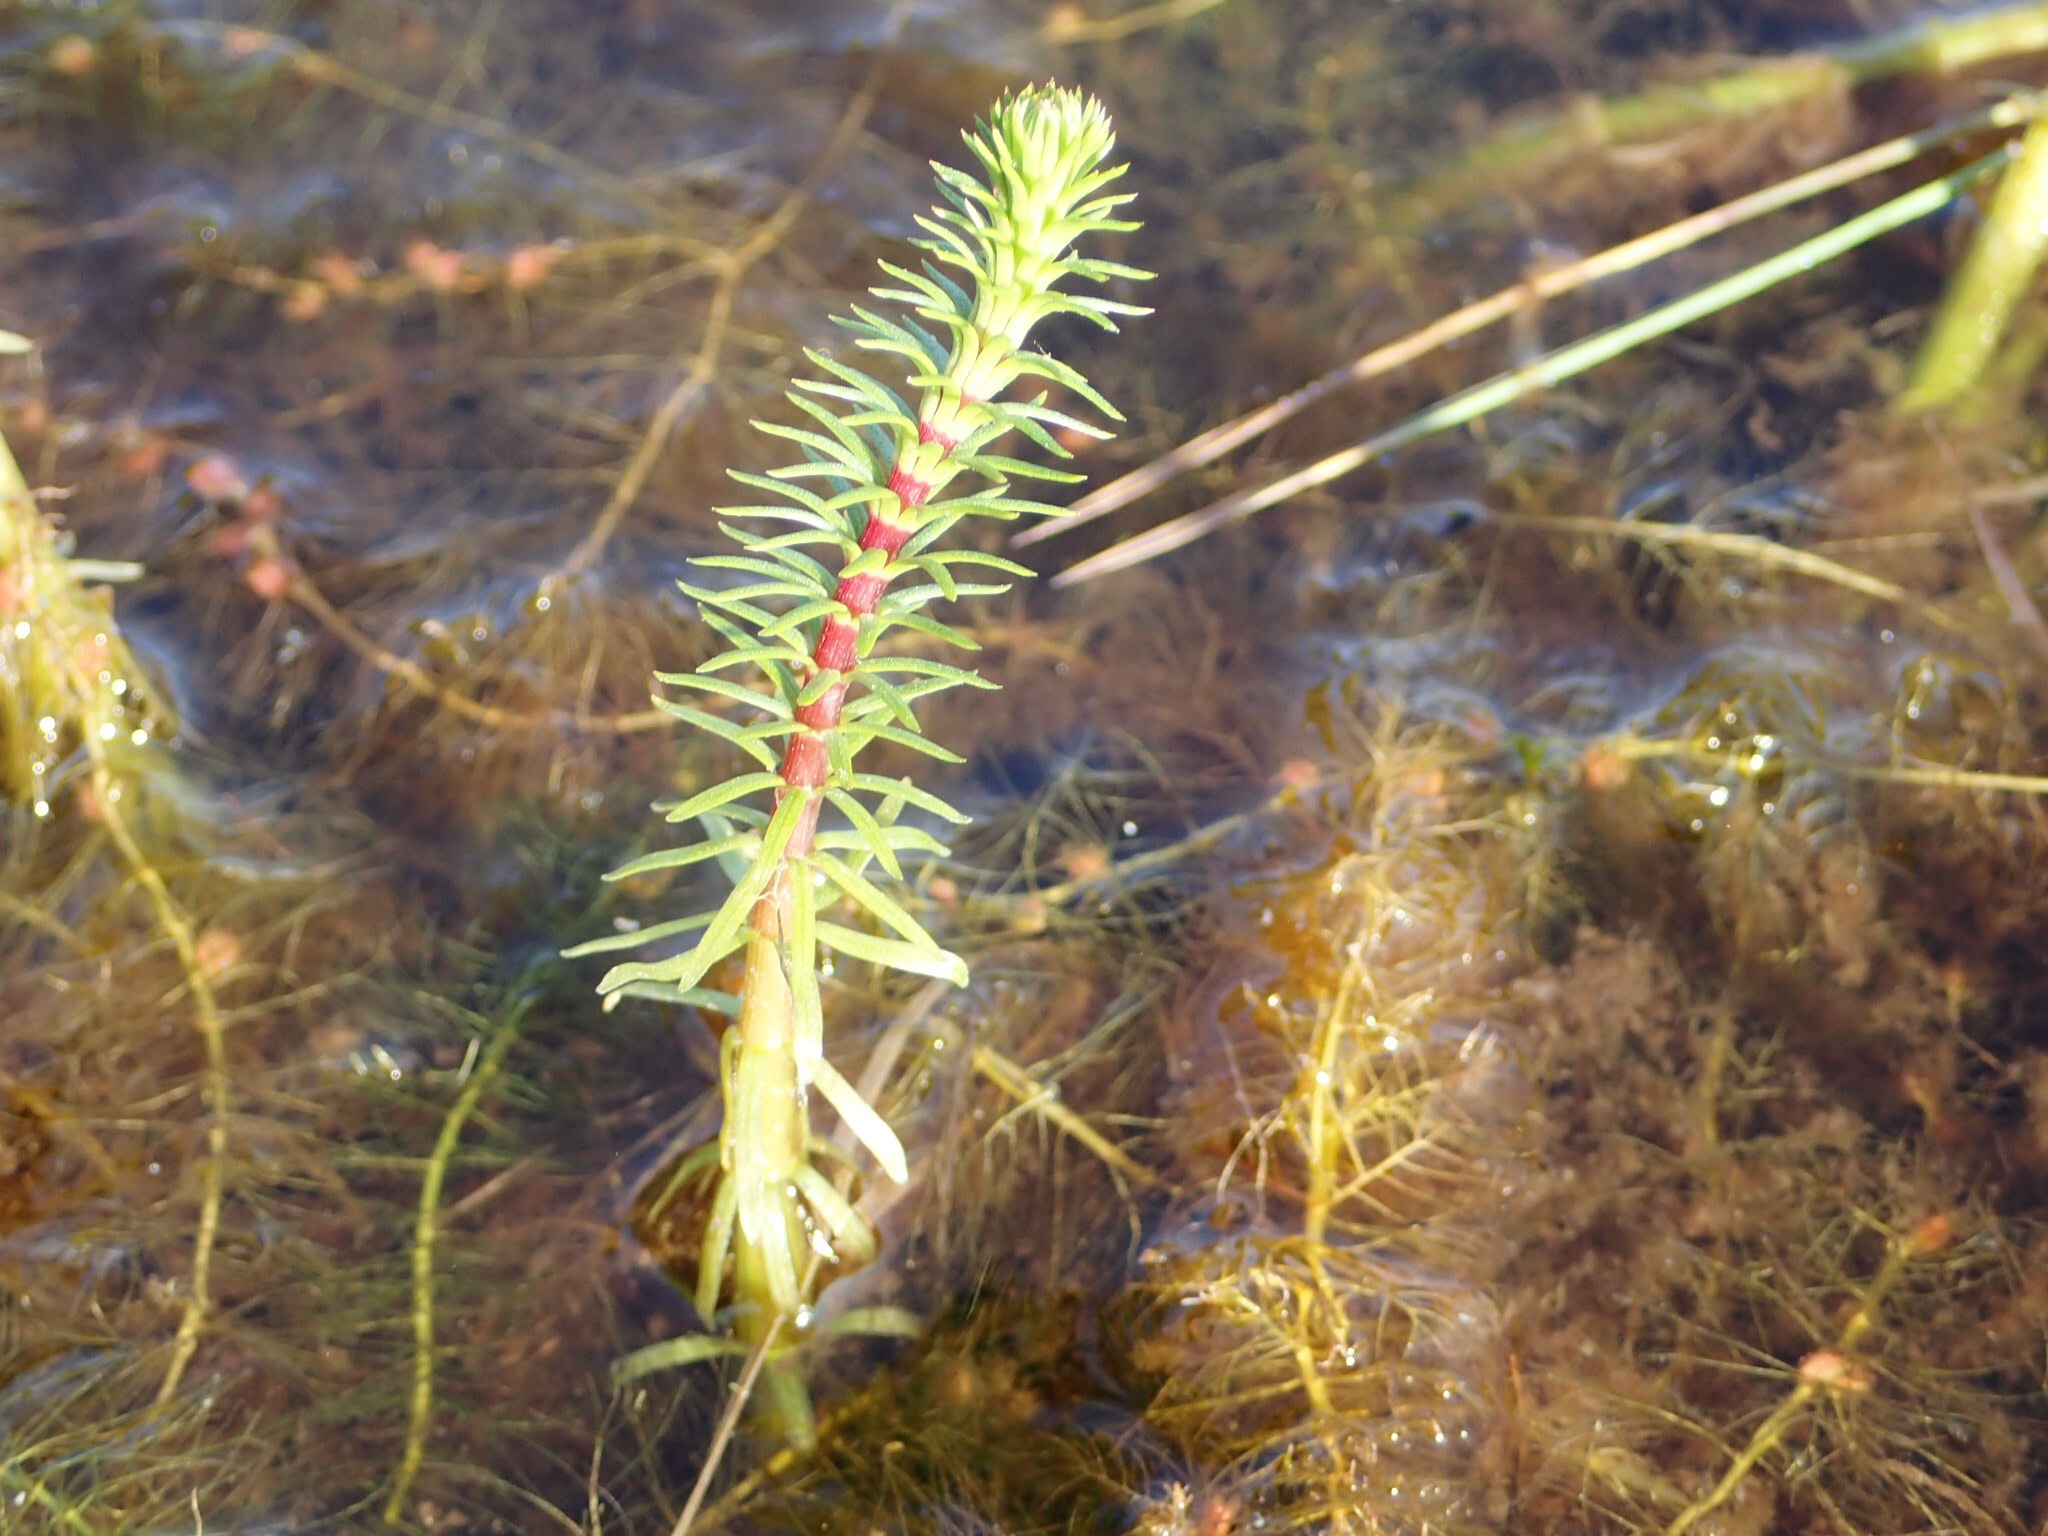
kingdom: Plantae
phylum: Tracheophyta
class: Magnoliopsida
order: Lamiales
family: Plantaginaceae
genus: Hippuris
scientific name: Hippuris vulgaris
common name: Mare's-tail
